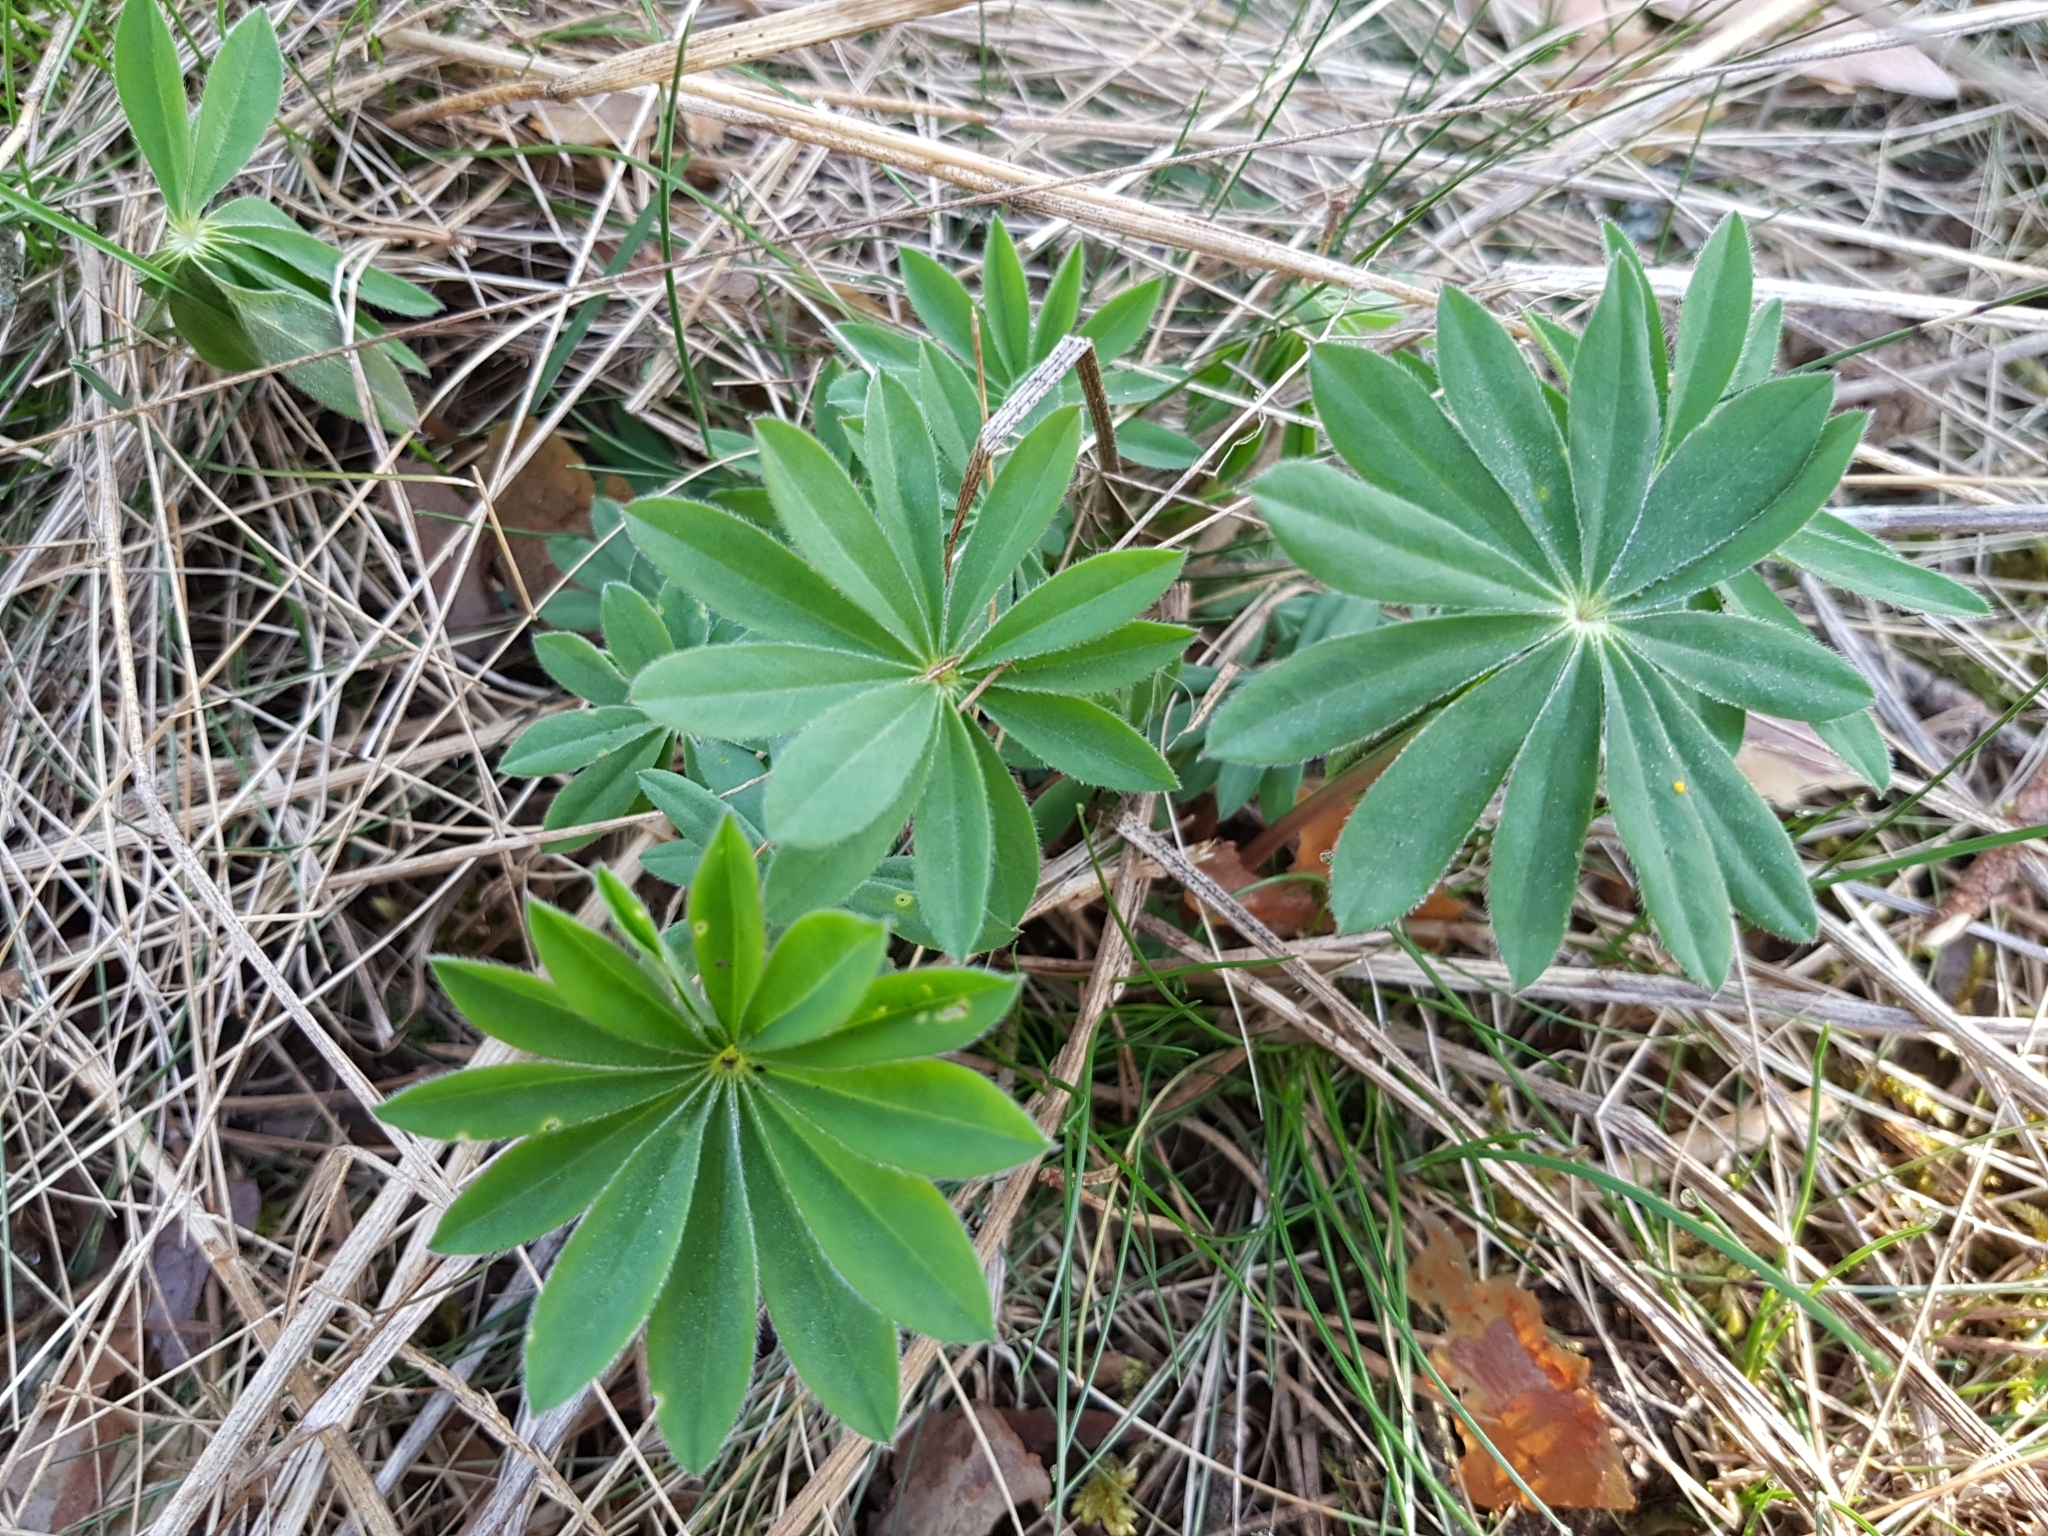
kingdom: Plantae
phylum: Tracheophyta
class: Magnoliopsida
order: Fabales
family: Fabaceae
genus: Lupinus
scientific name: Lupinus polyphyllus
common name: Garden lupin
